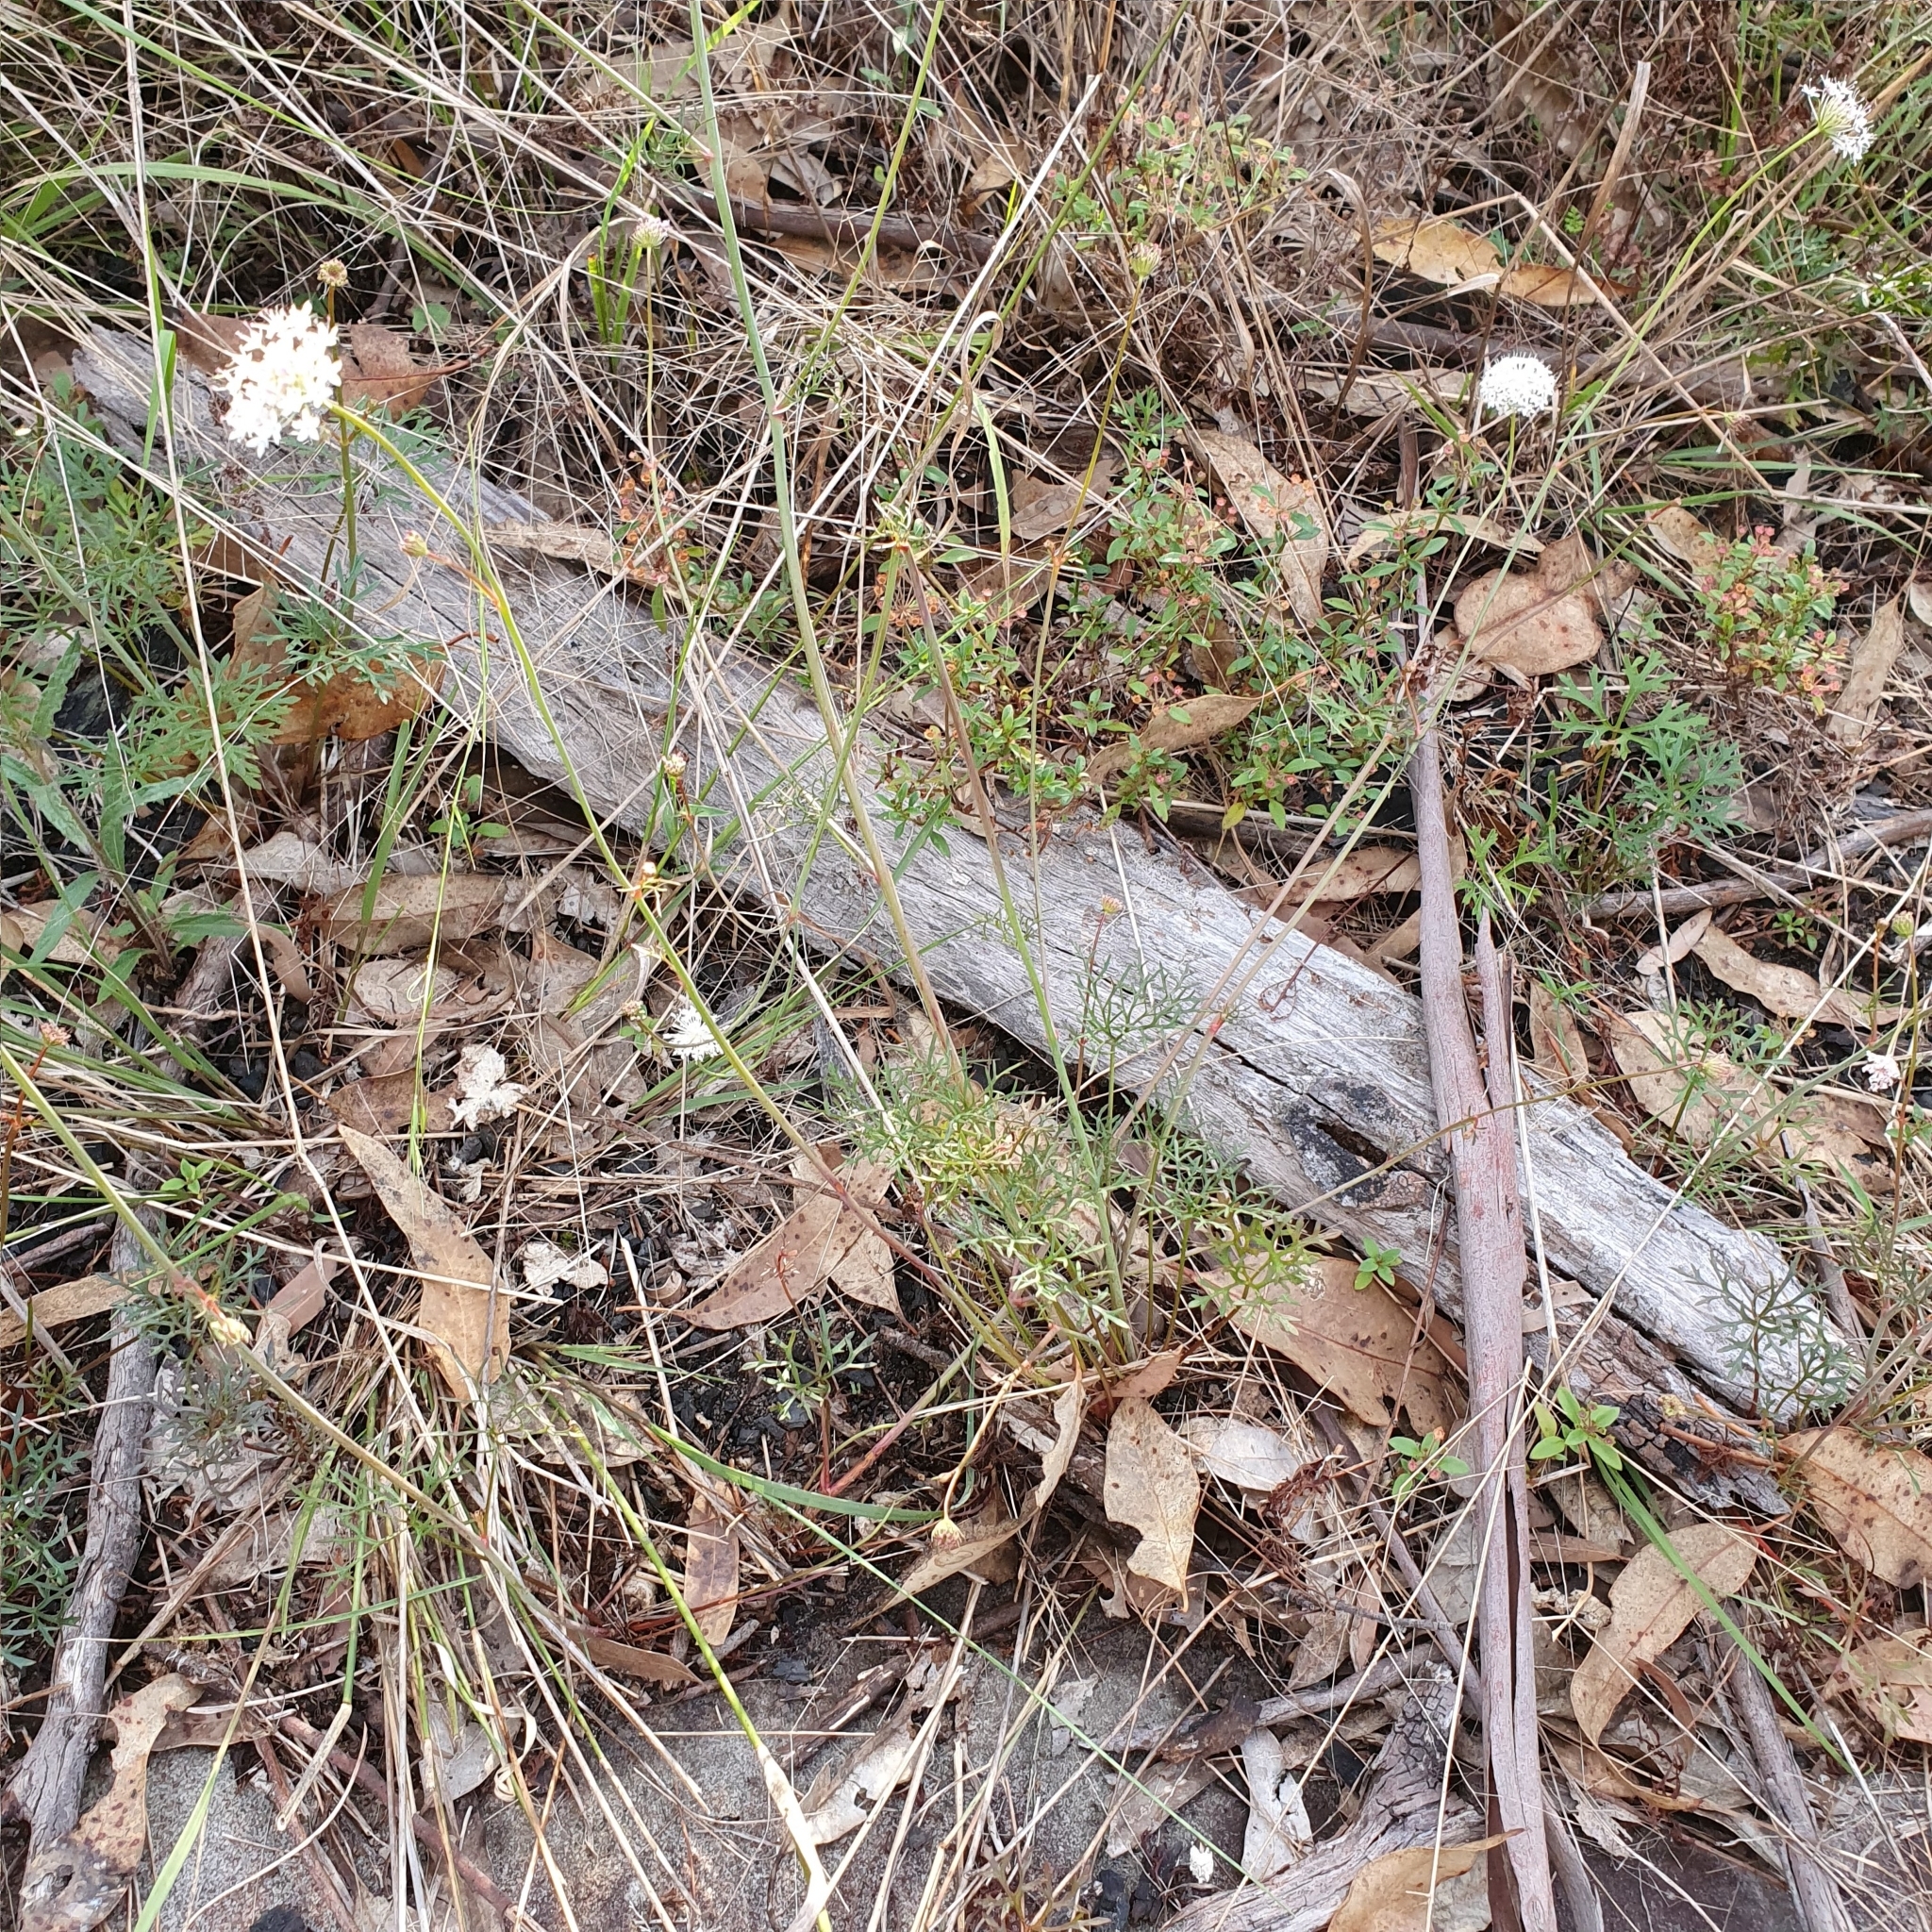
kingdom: Plantae
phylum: Tracheophyta
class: Magnoliopsida
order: Apiales
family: Araliaceae
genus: Trachymene
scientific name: Trachymene incisa
